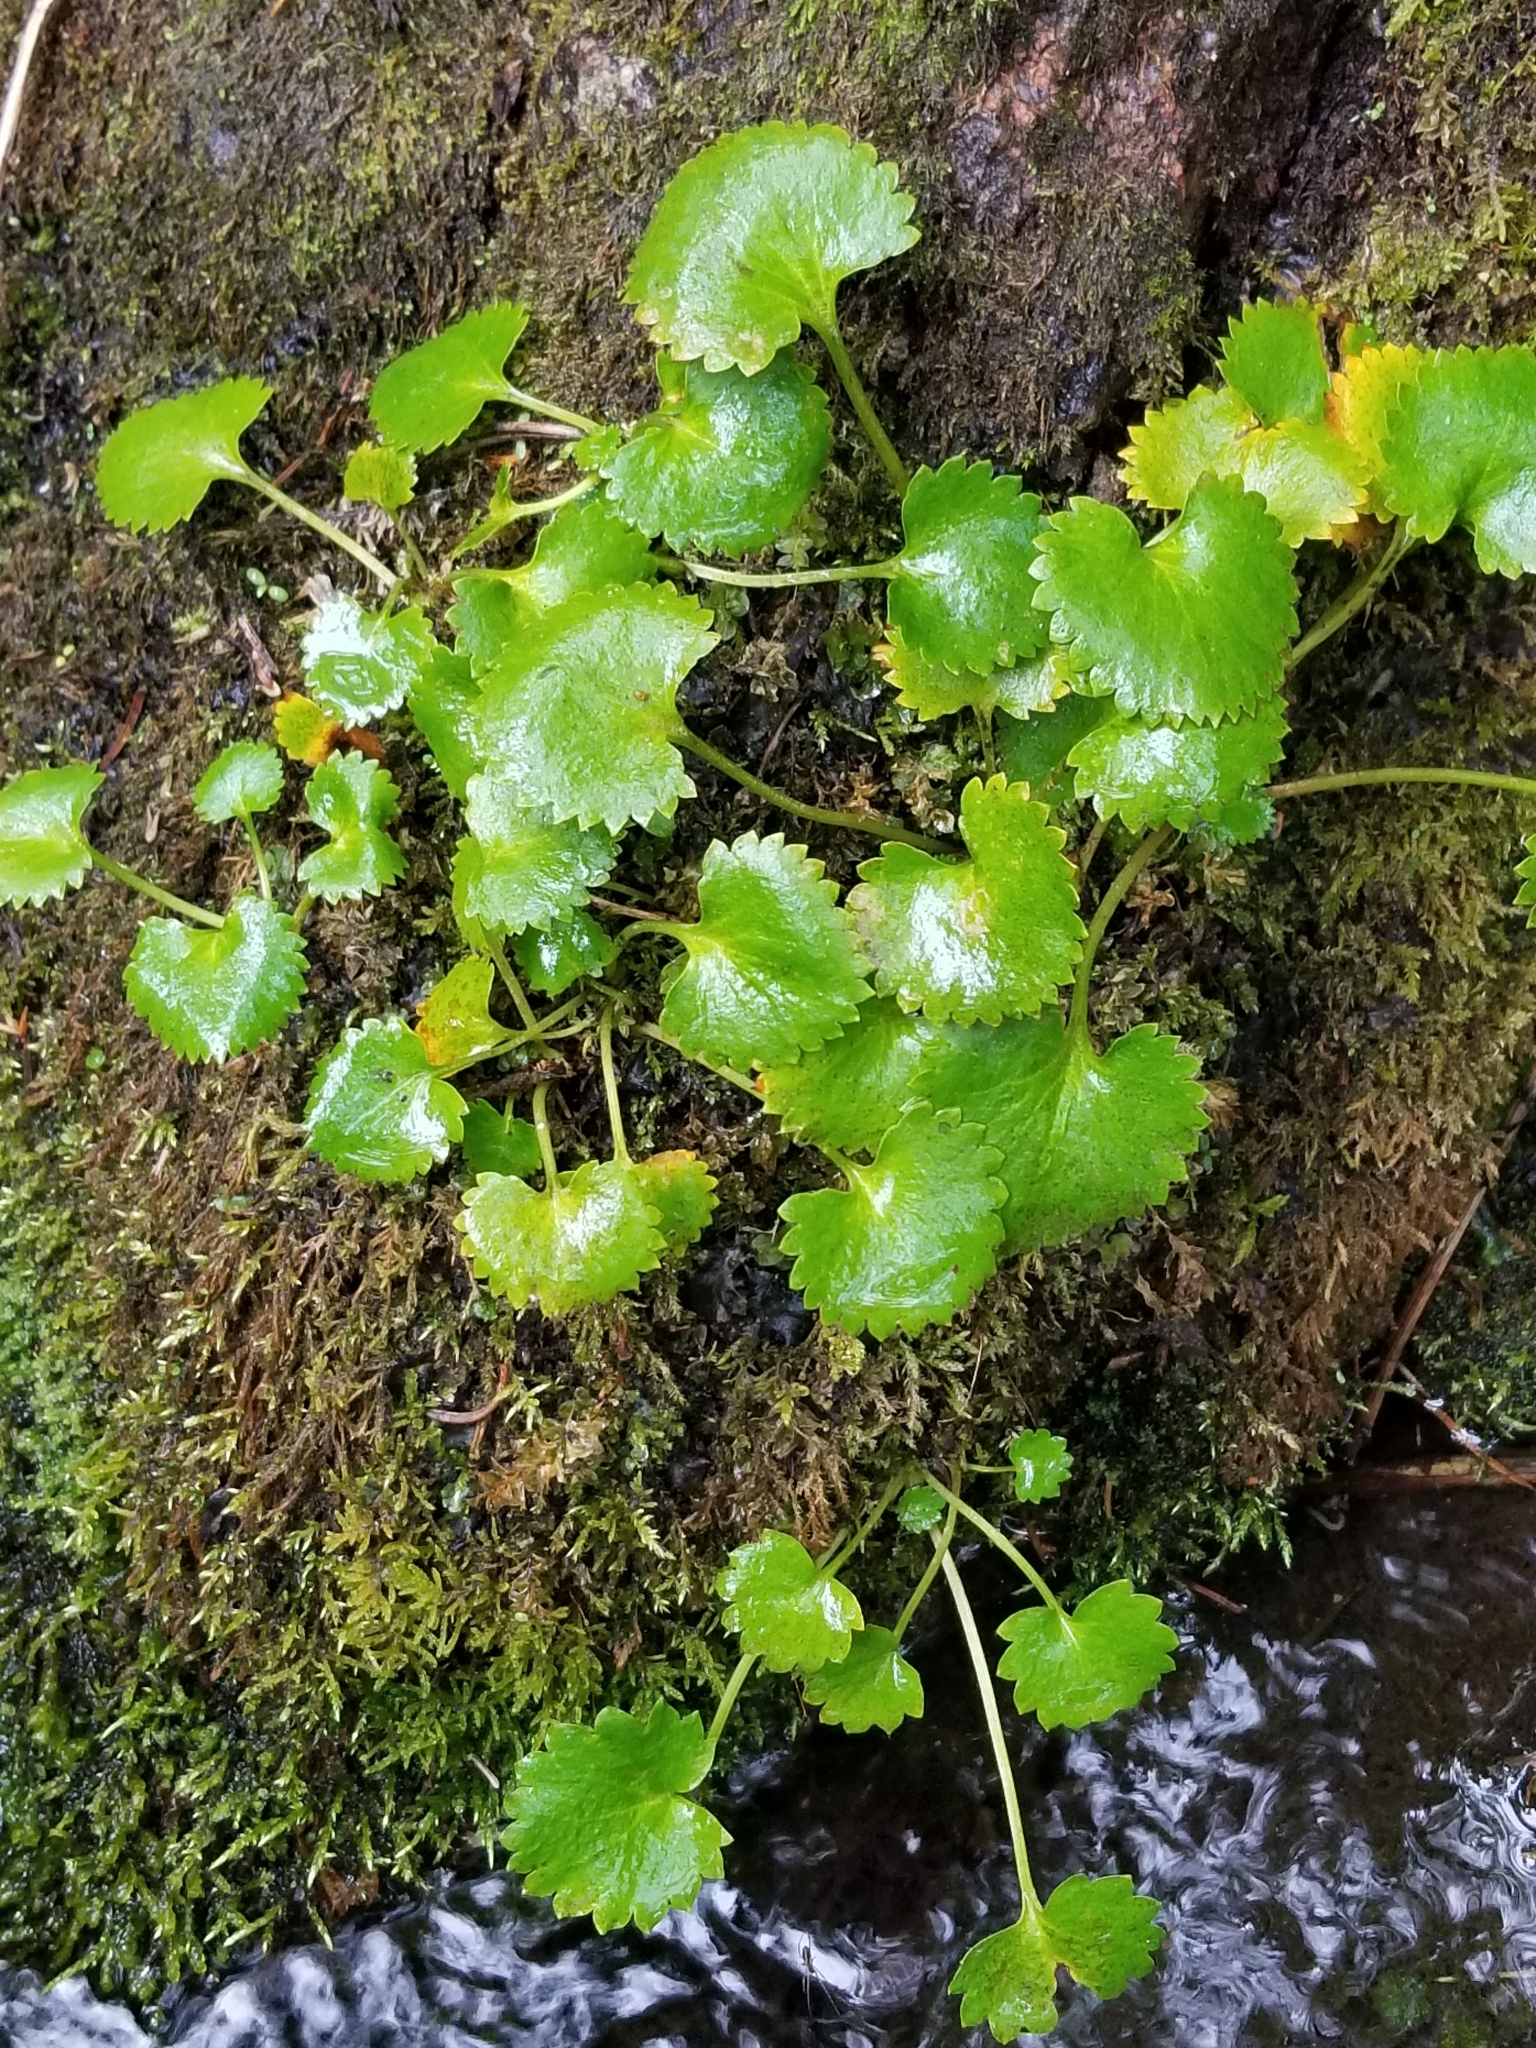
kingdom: Plantae
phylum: Tracheophyta
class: Magnoliopsida
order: Saxifragales
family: Saxifragaceae
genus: Micranthes
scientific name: Micranthes odontoloma
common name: Brook saxifrage
